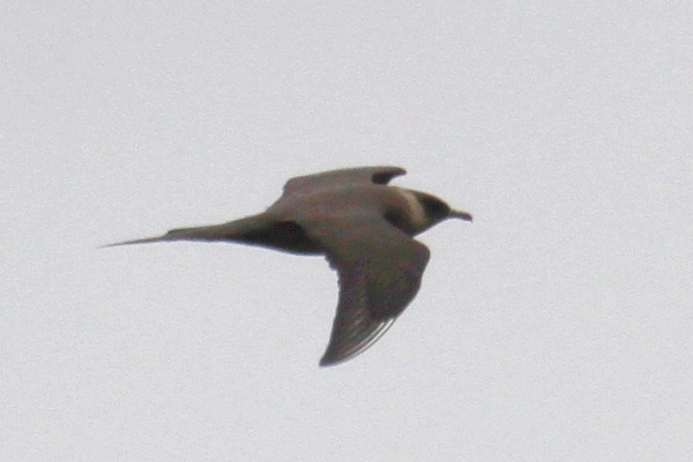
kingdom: Animalia
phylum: Chordata
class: Aves
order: Charadriiformes
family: Stercorariidae
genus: Stercorarius
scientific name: Stercorarius parasiticus
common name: Parasitic jaeger
